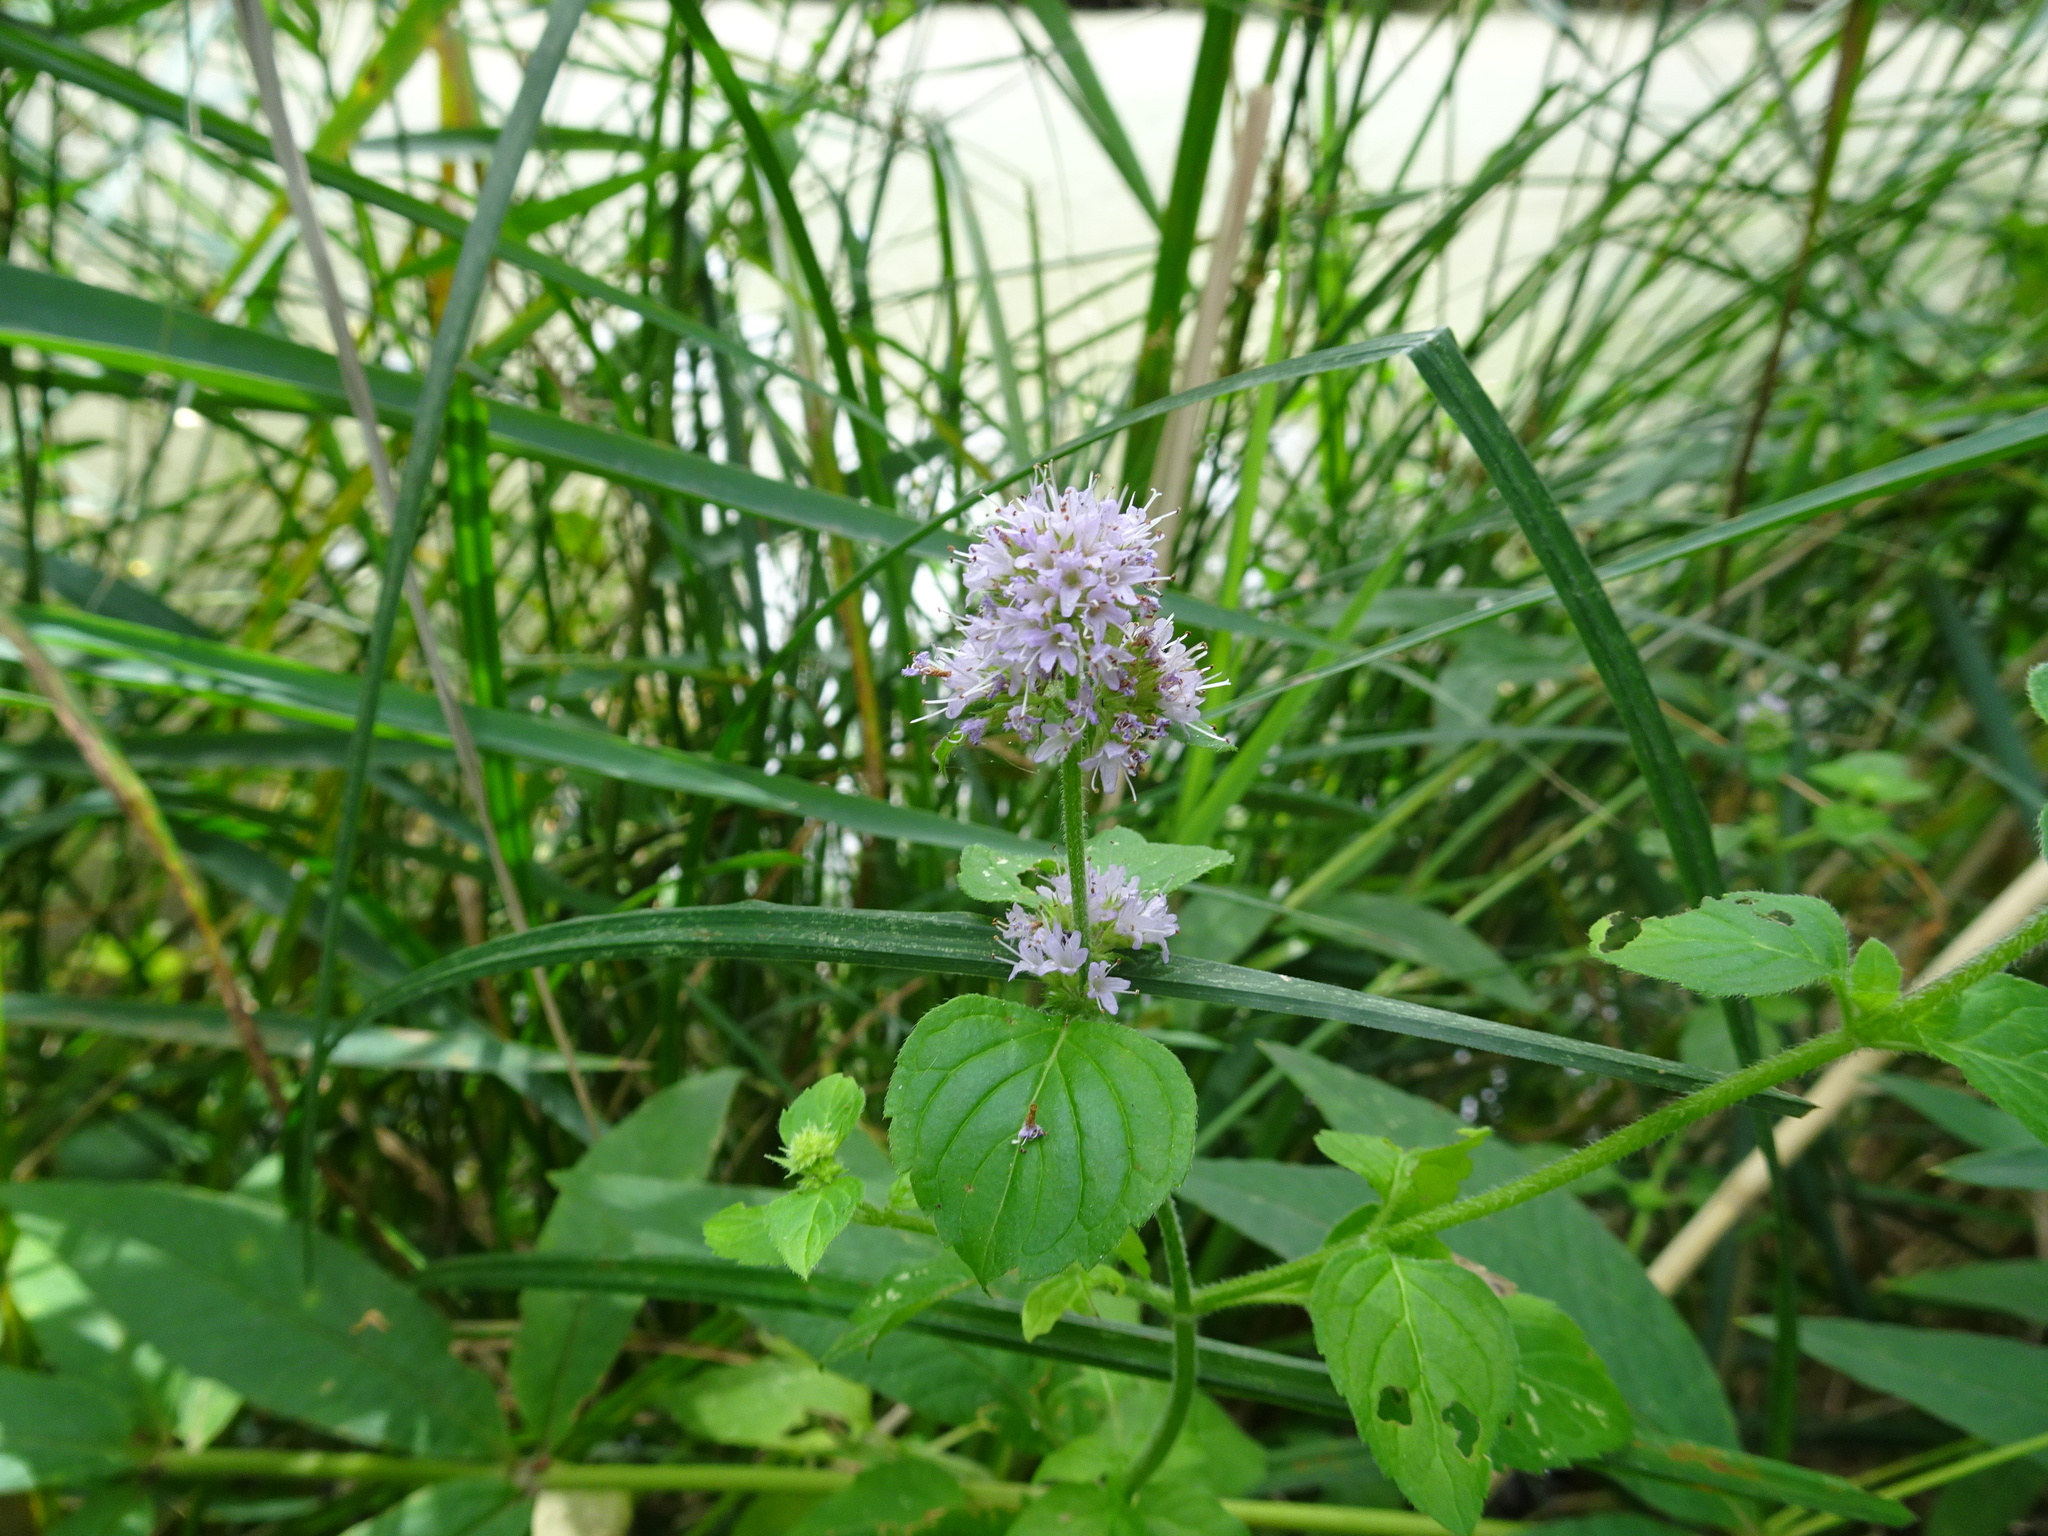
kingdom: Plantae
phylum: Tracheophyta
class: Magnoliopsida
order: Lamiales
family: Lamiaceae
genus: Mentha
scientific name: Mentha aquatica
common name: Water mint
